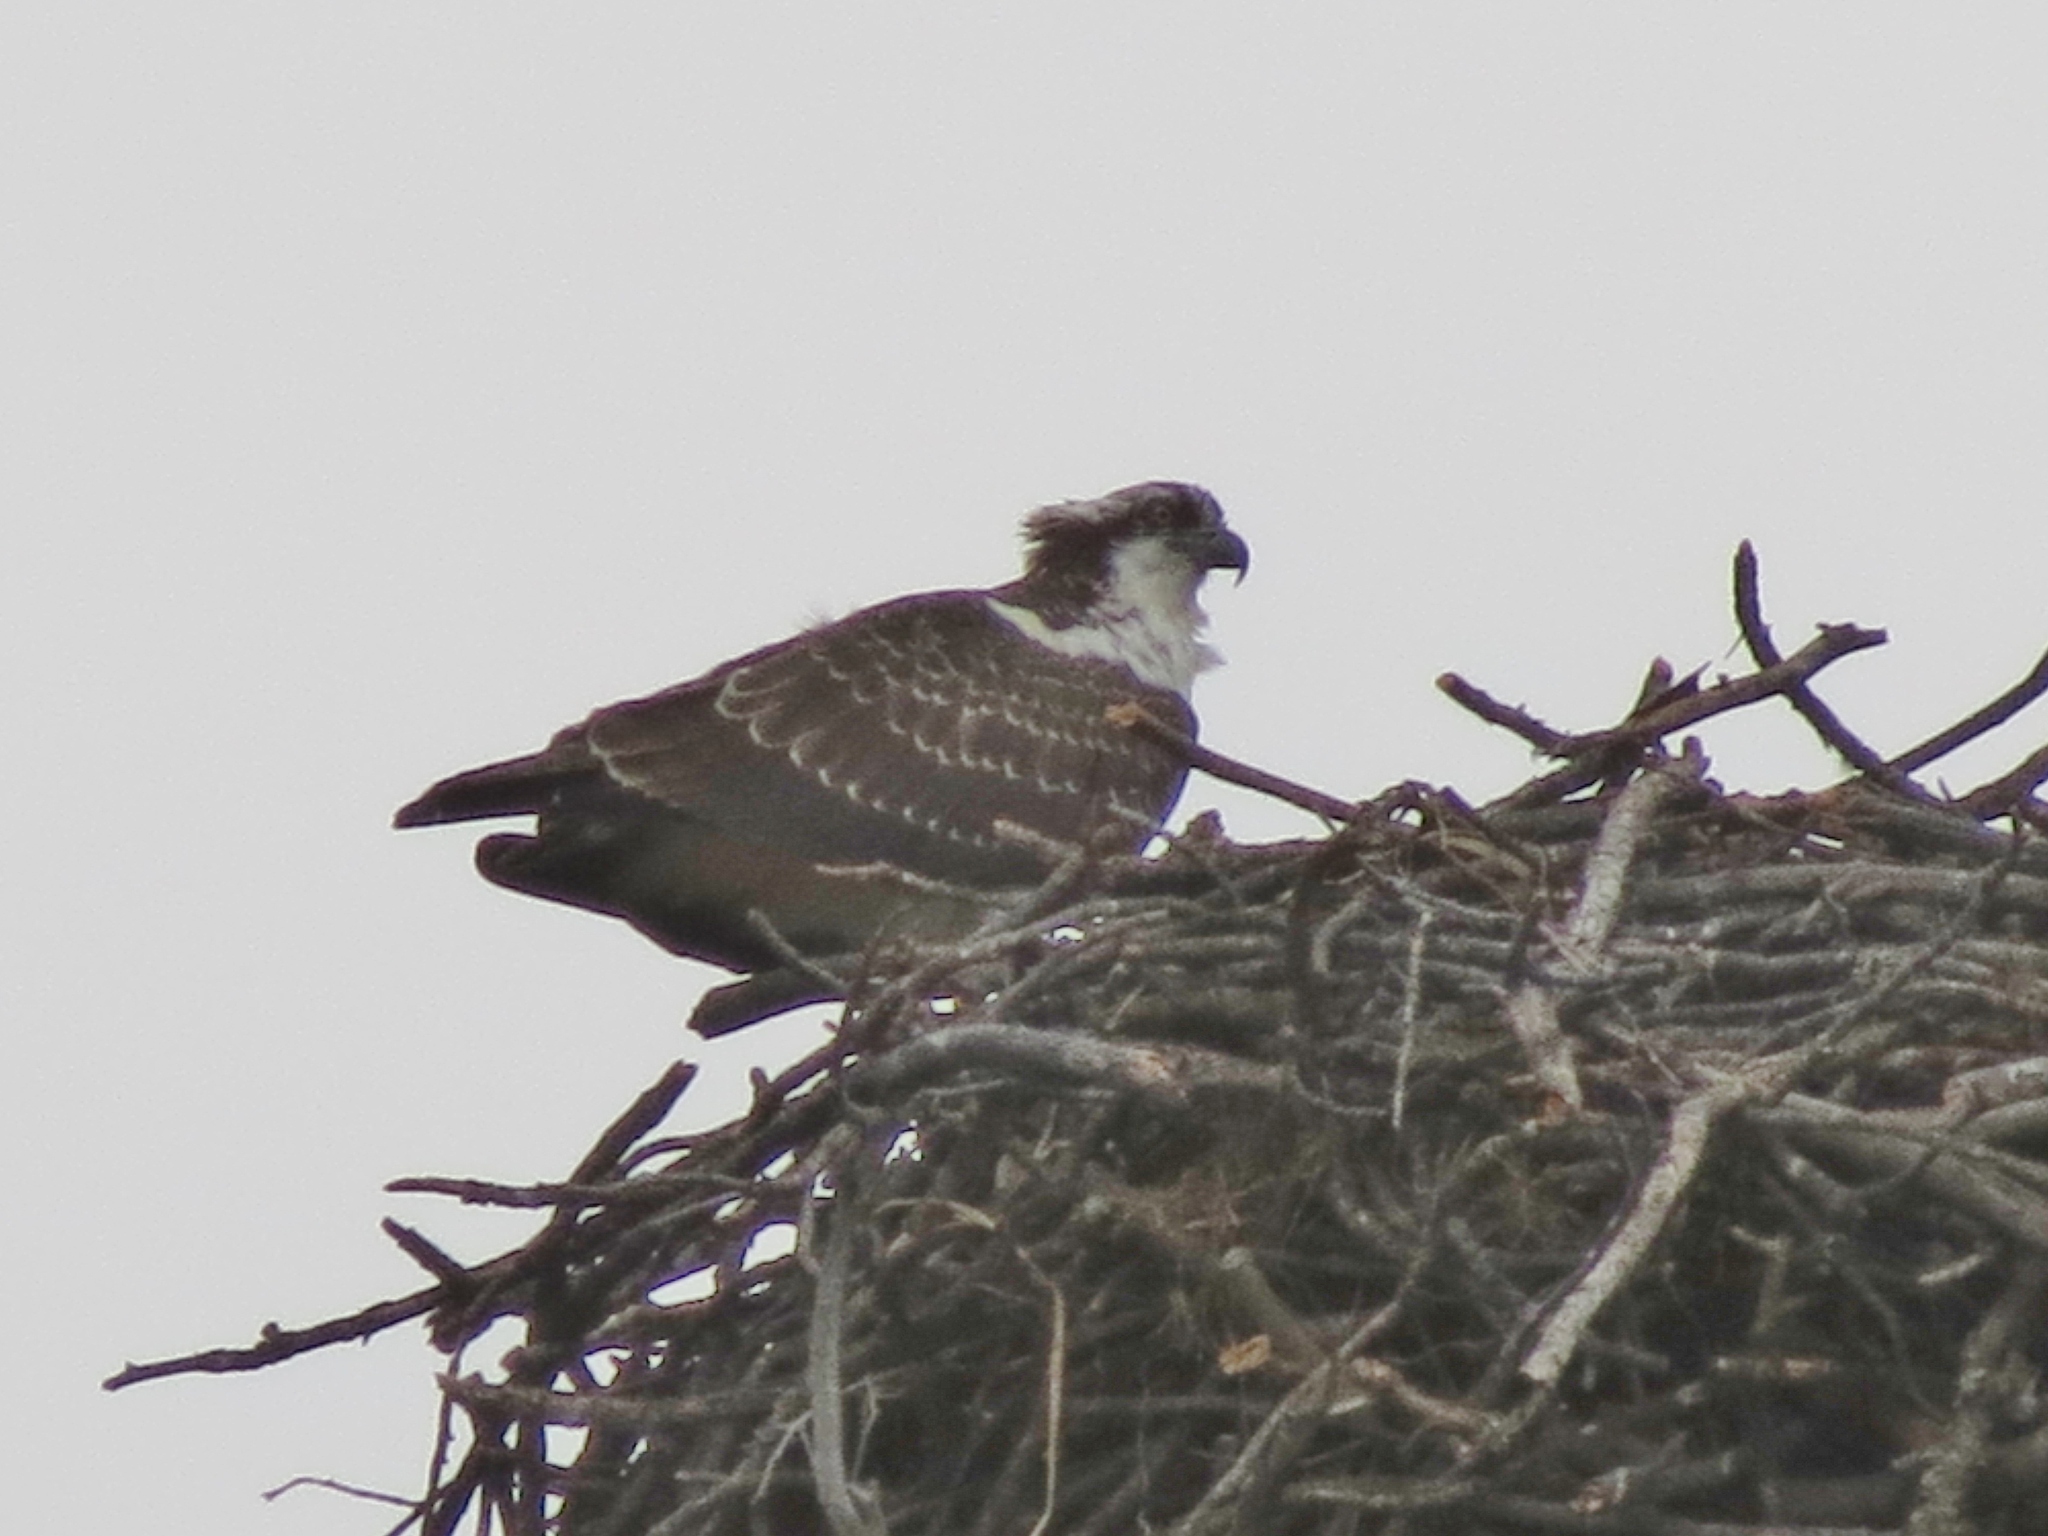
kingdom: Animalia
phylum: Chordata
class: Aves
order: Accipitriformes
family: Pandionidae
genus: Pandion
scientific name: Pandion haliaetus
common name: Osprey
